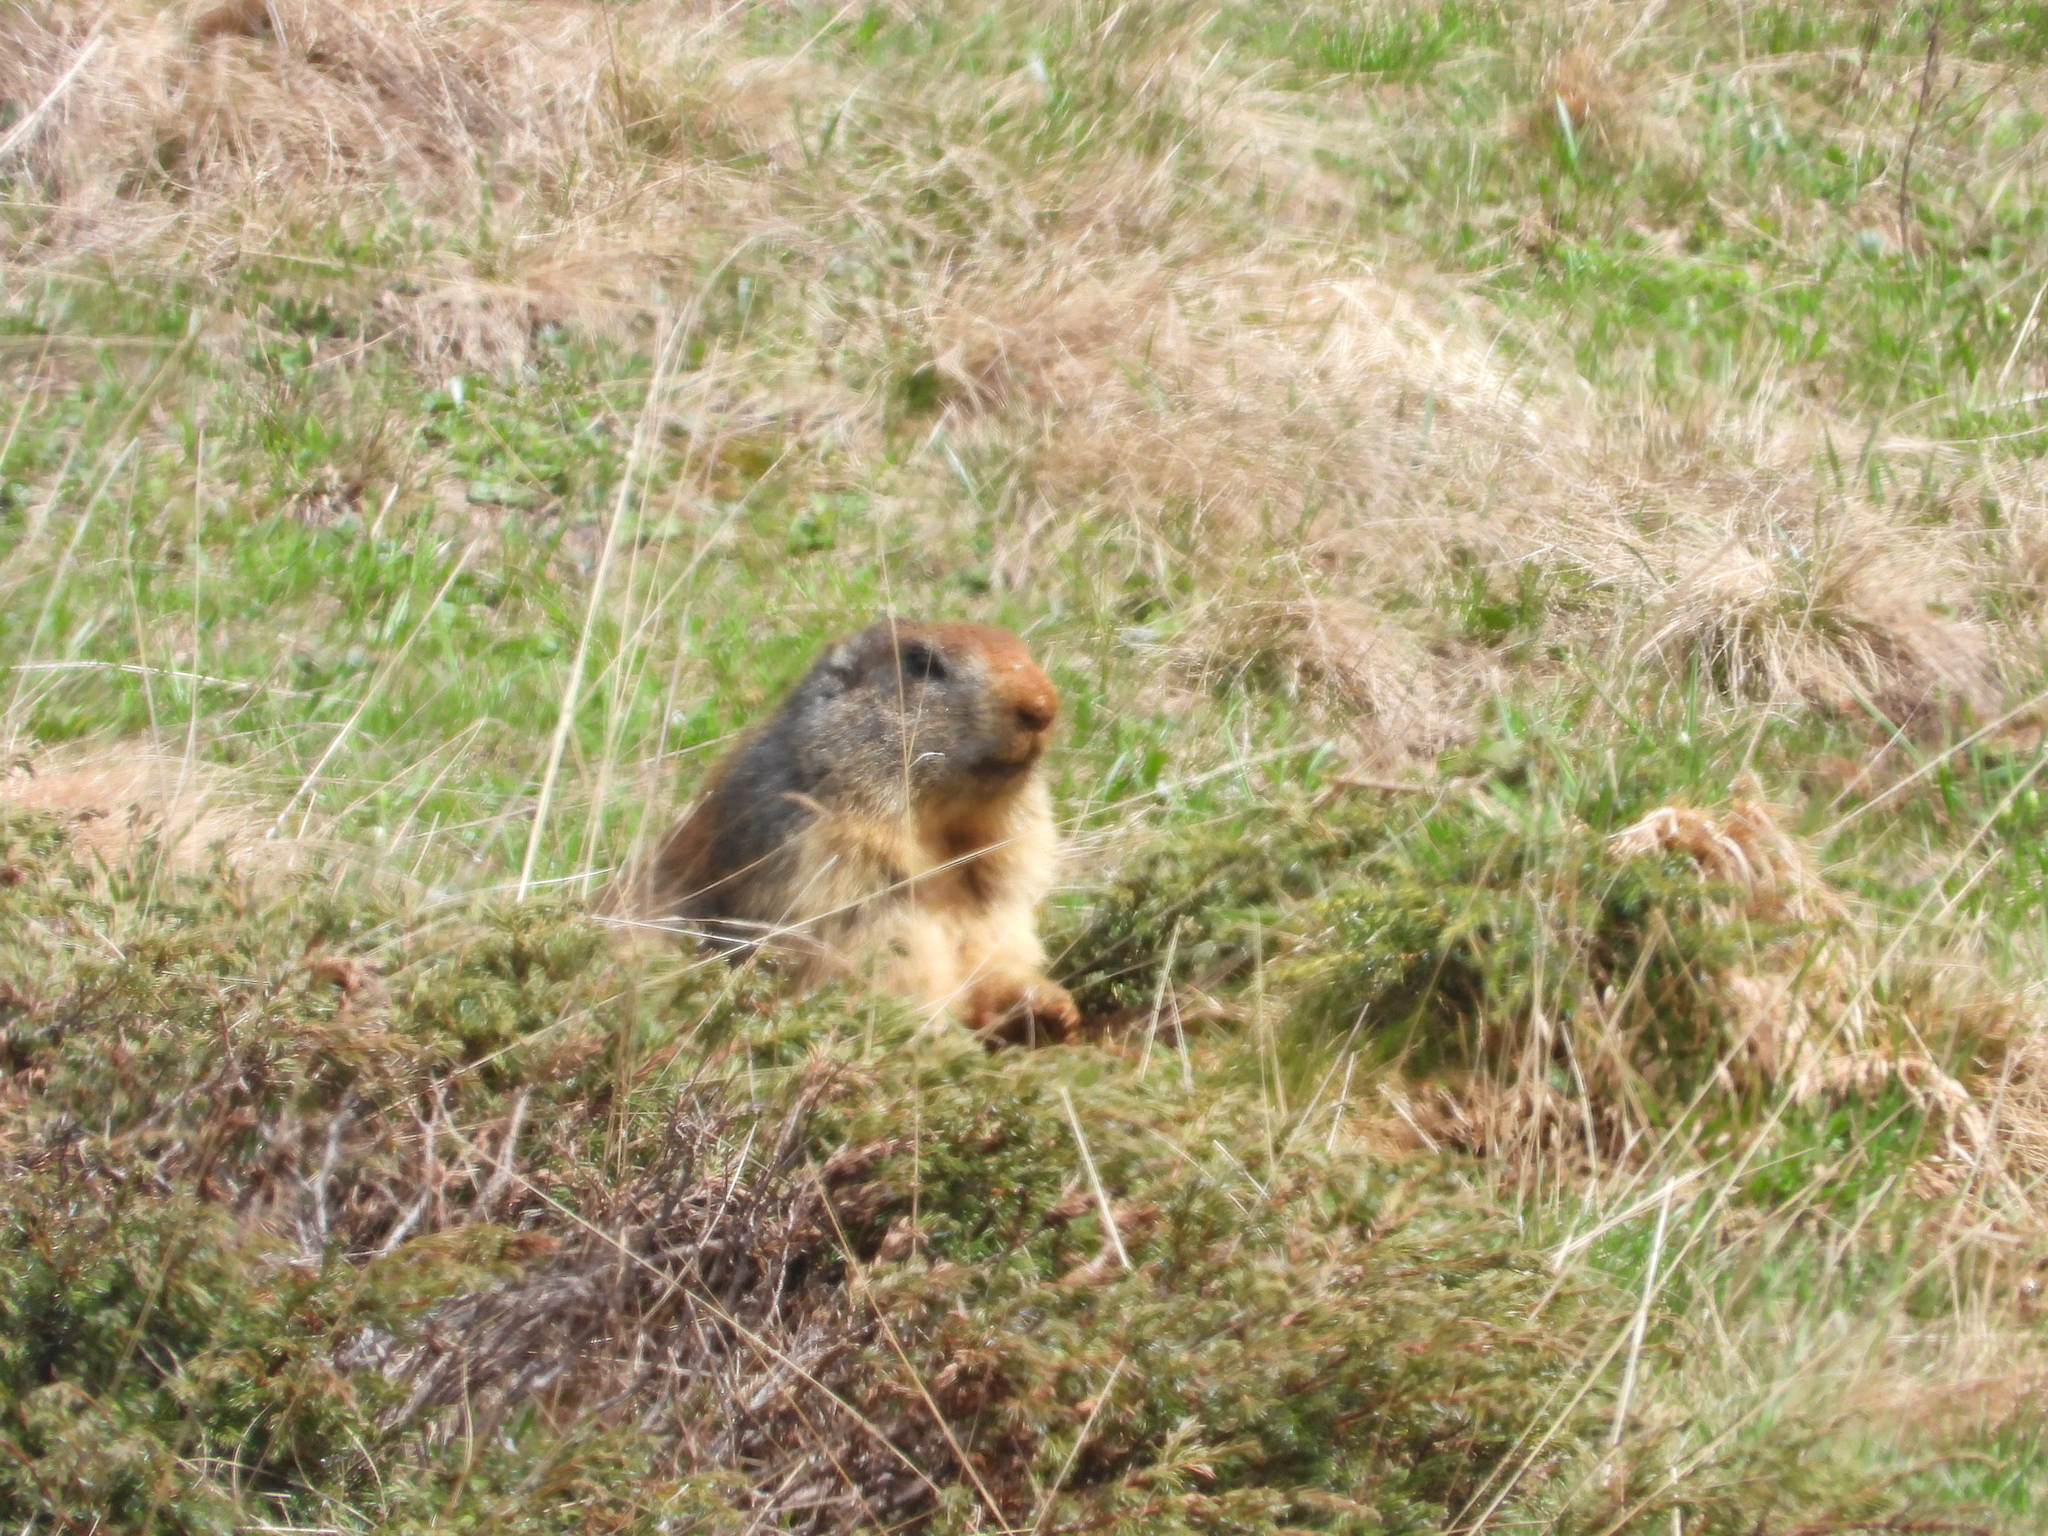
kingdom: Animalia
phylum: Chordata
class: Mammalia
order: Rodentia
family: Sciuridae
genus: Marmota
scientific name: Marmota marmota
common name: Alpine marmot
